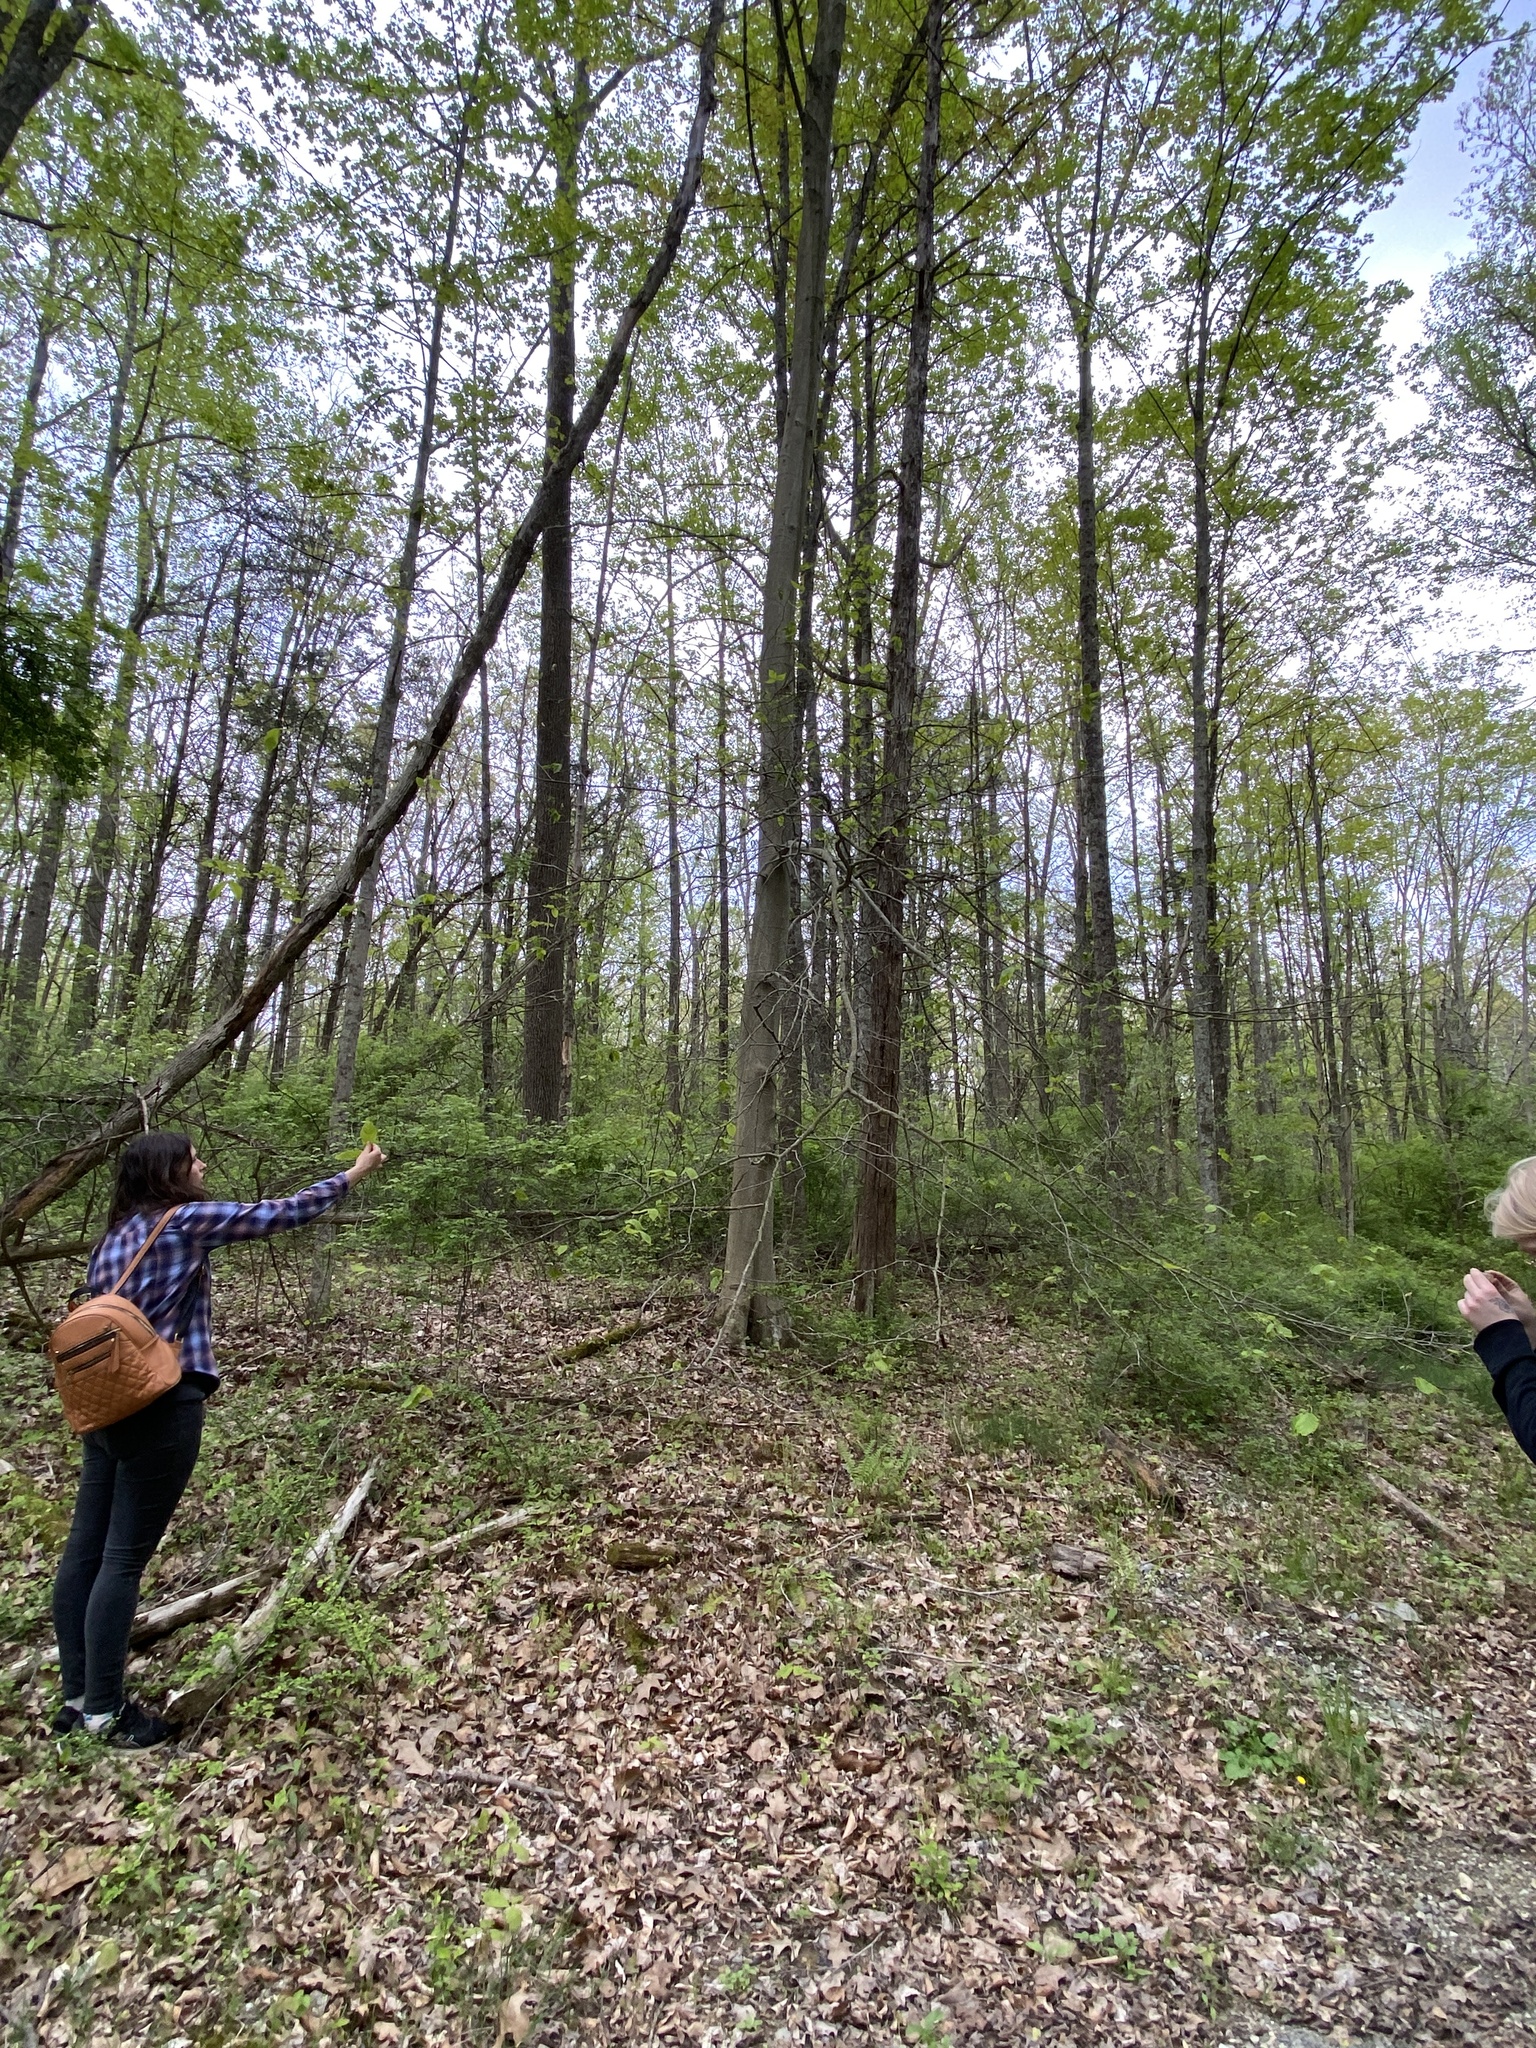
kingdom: Animalia
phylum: Nematoda
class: Chromadorea
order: Rhabditida
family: Anguinidae
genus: Litylenchus
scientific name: Litylenchus crenatae
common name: Beech leaf disease
